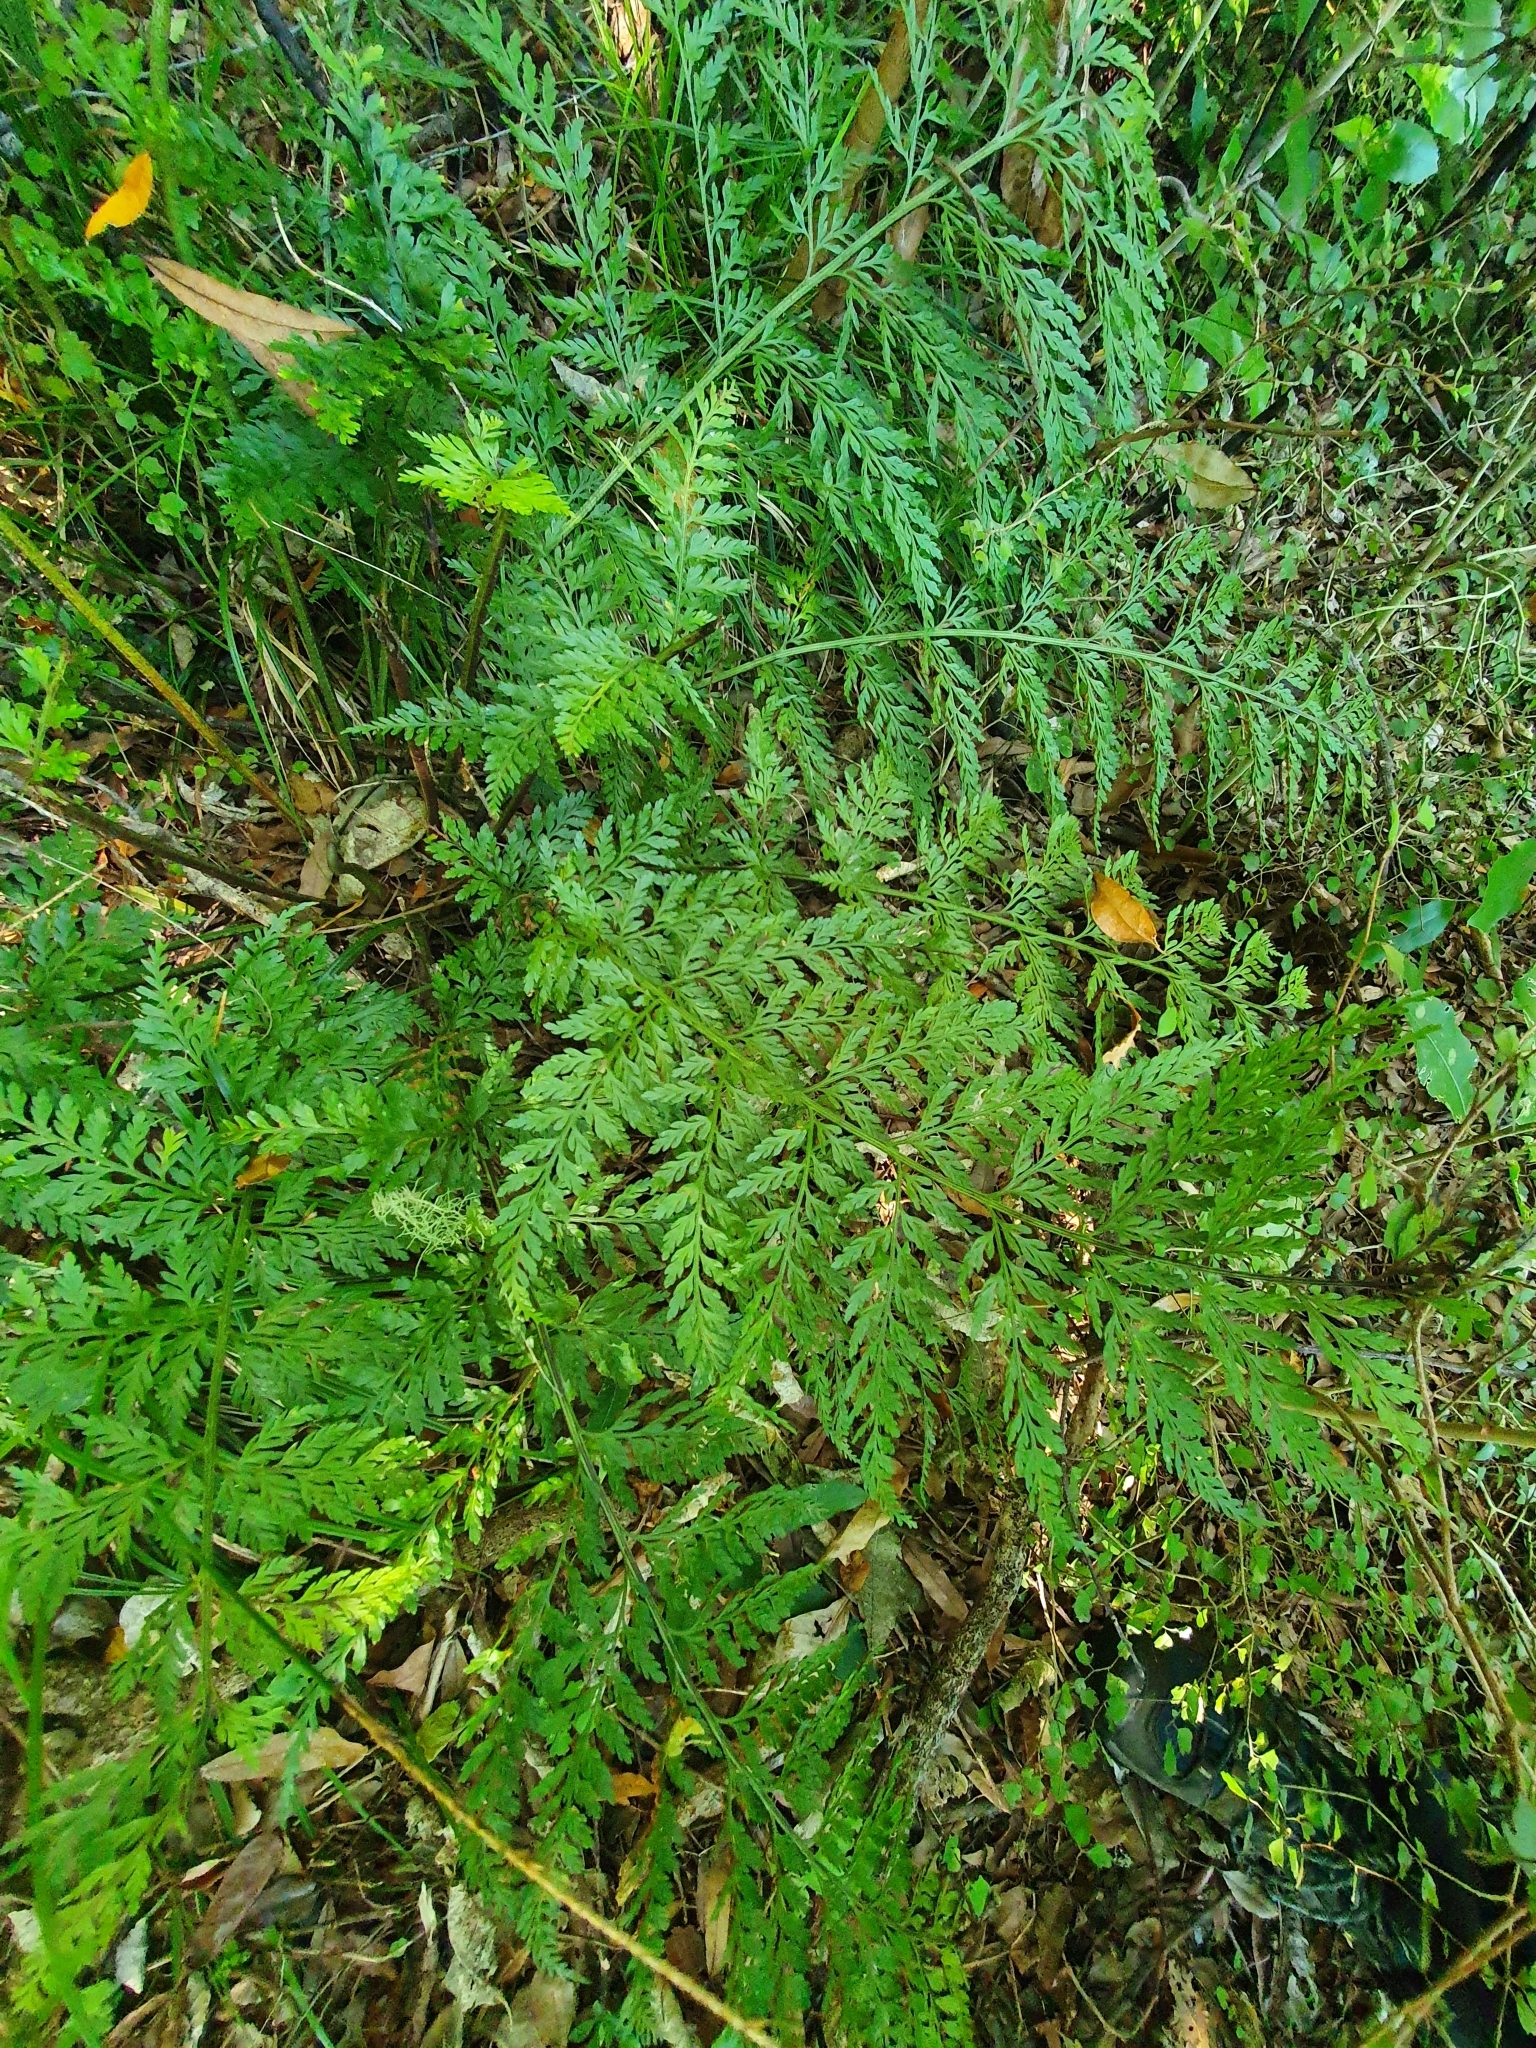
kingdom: Plantae
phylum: Tracheophyta
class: Polypodiopsida
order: Polypodiales
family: Aspleniaceae
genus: Asplenium
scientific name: Asplenium
